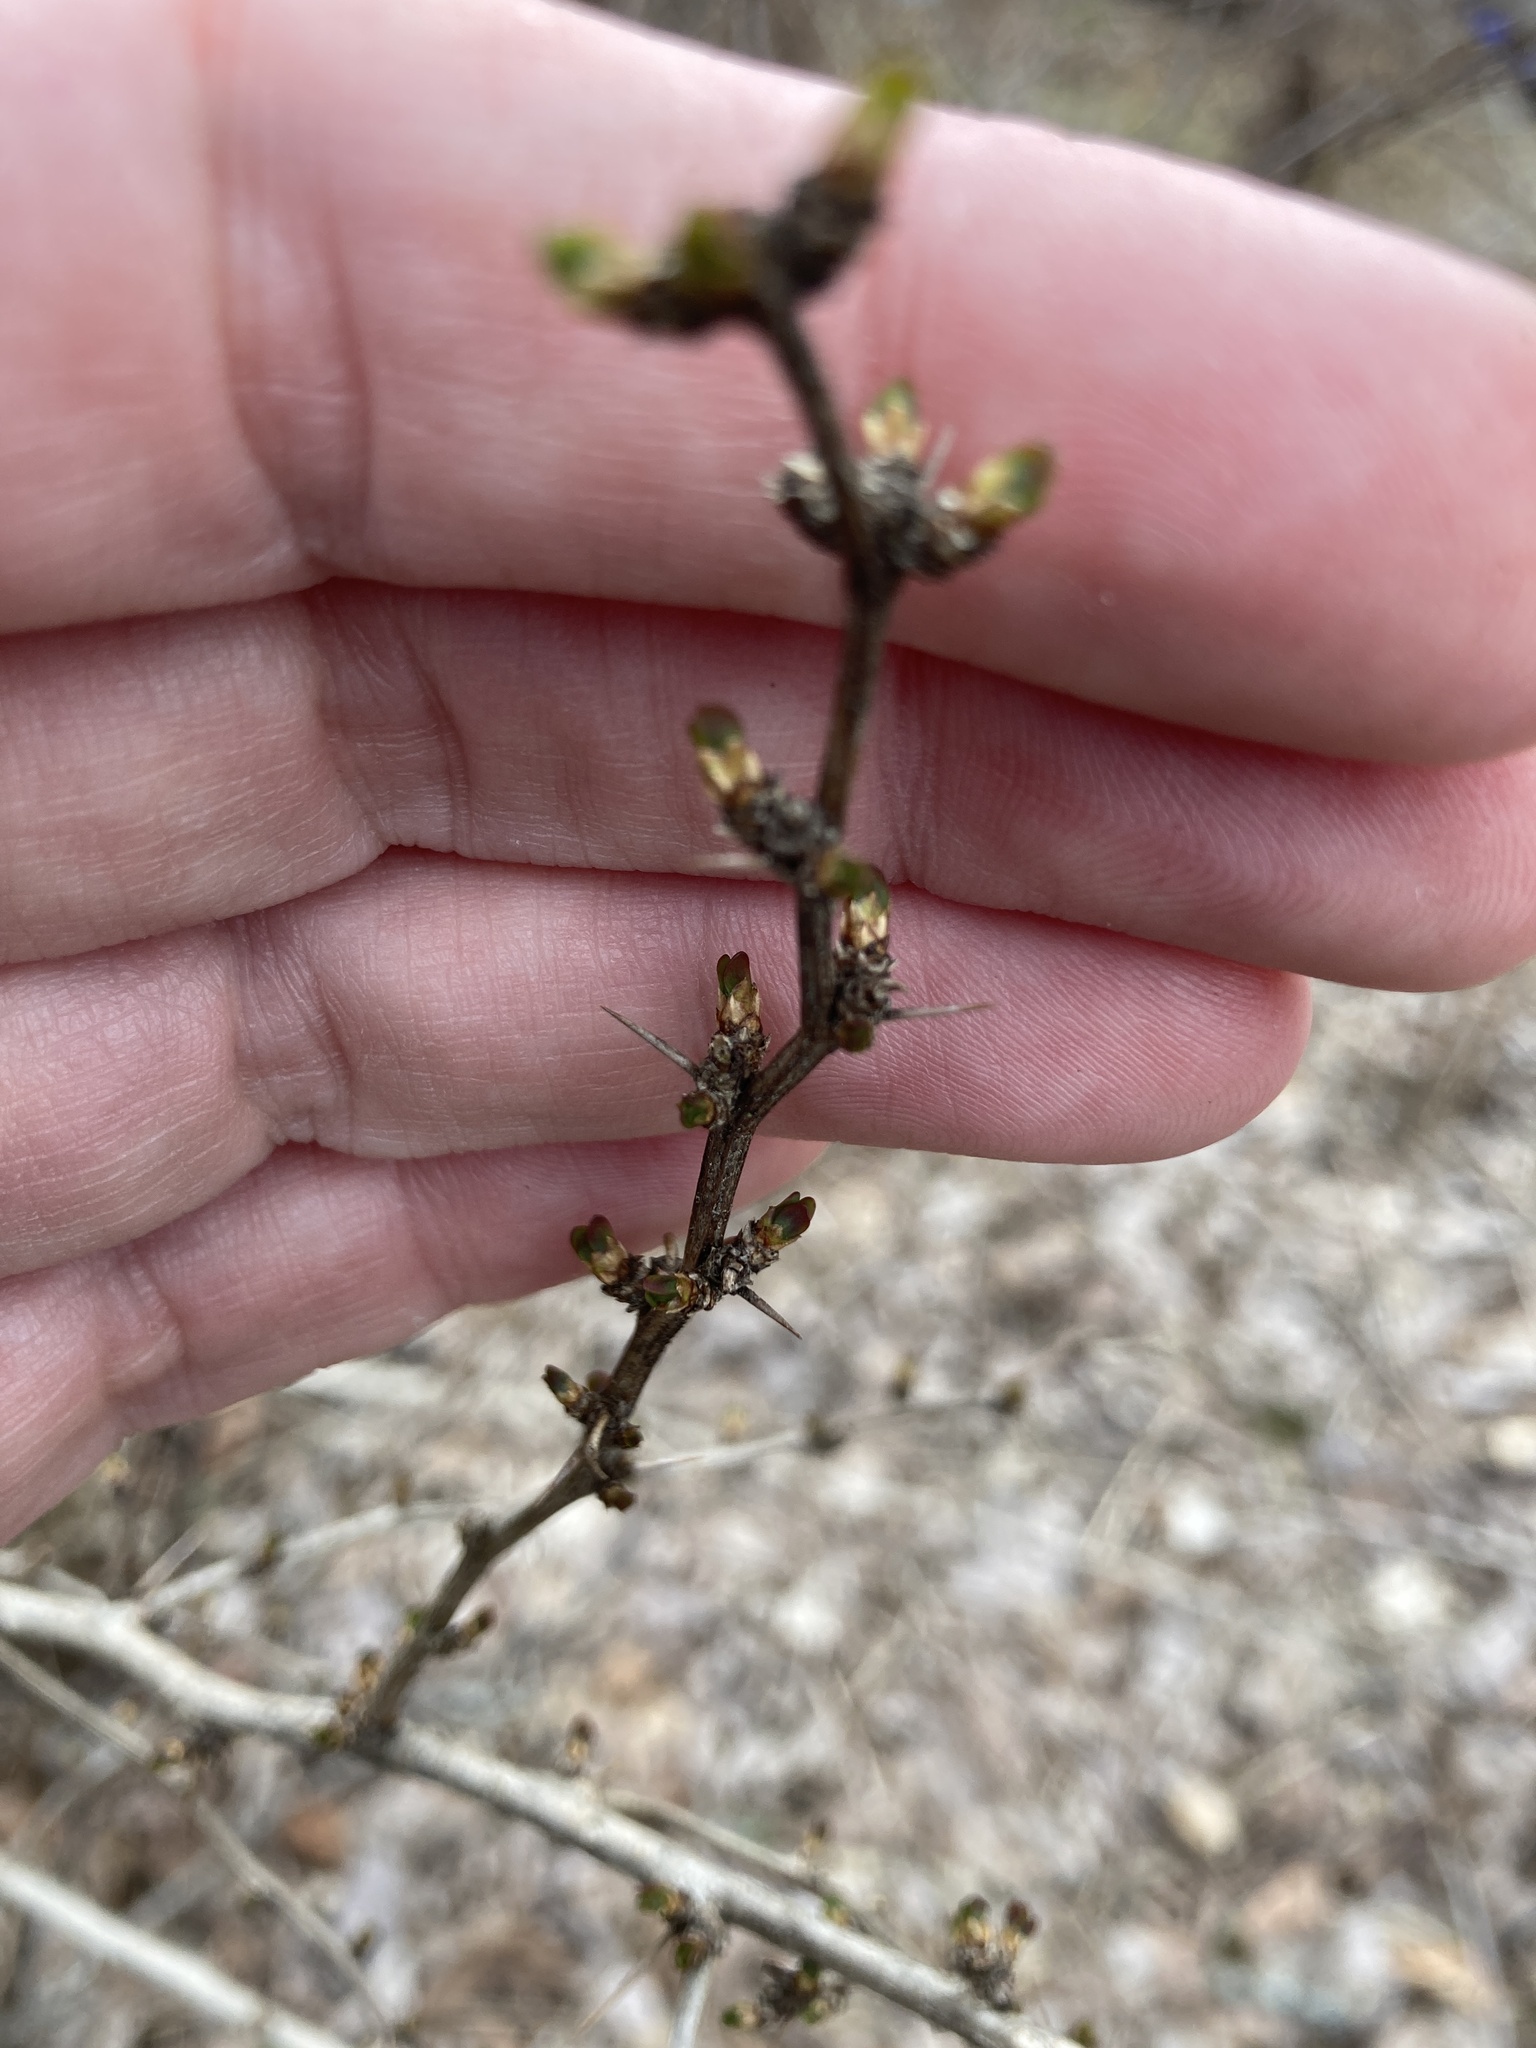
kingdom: Plantae
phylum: Tracheophyta
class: Magnoliopsida
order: Ranunculales
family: Berberidaceae
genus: Berberis
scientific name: Berberis thunbergii
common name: Japanese barberry
